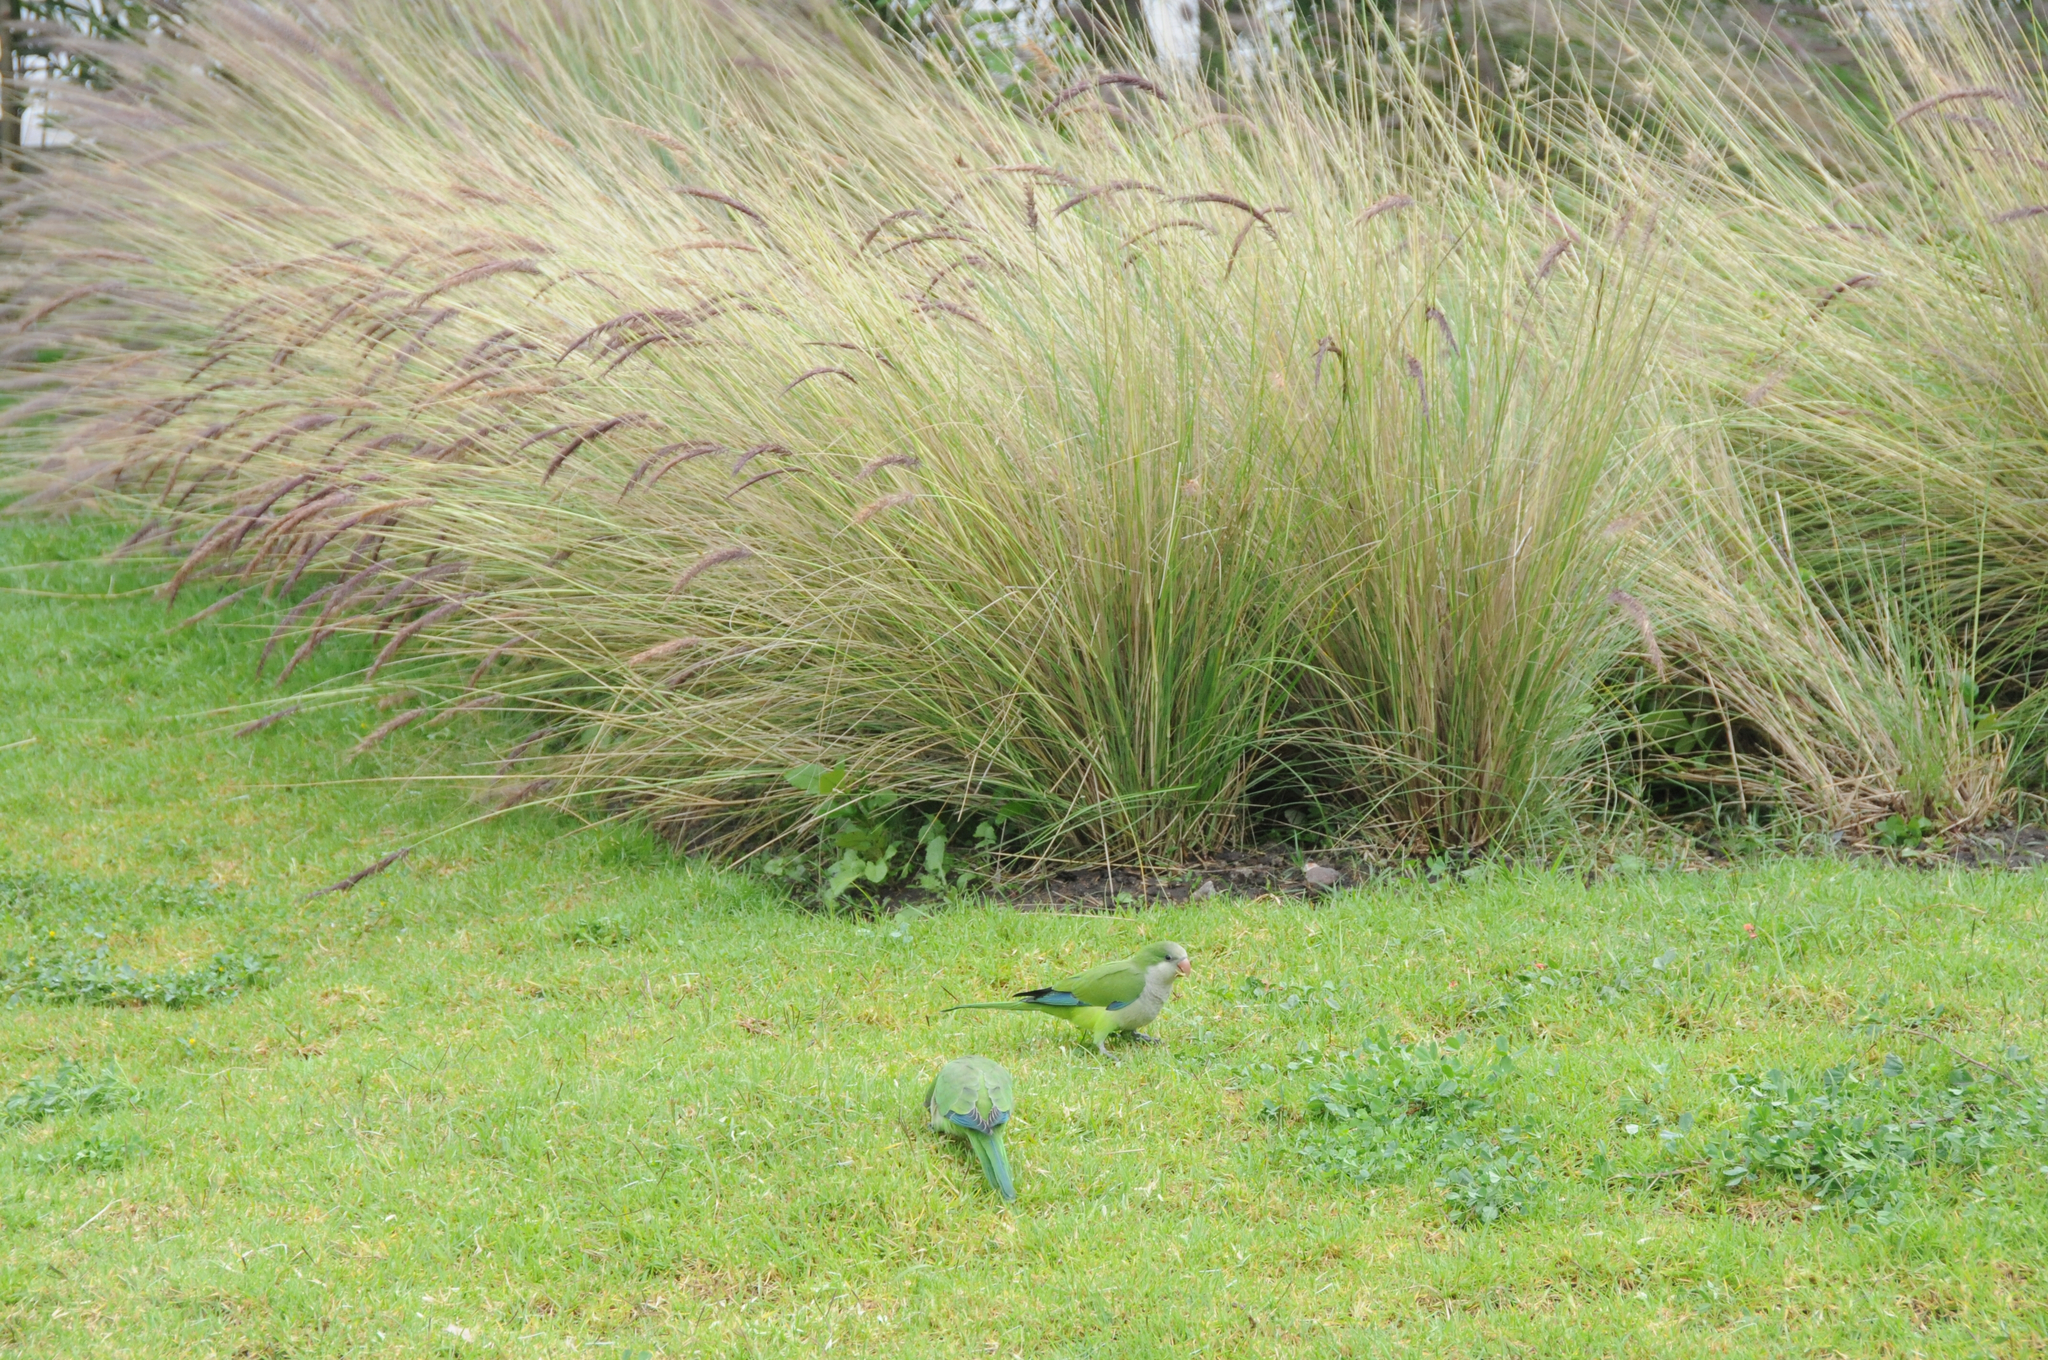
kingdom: Animalia
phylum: Chordata
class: Aves
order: Psittaciformes
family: Psittacidae
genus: Myiopsitta
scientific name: Myiopsitta monachus
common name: Monk parakeet
